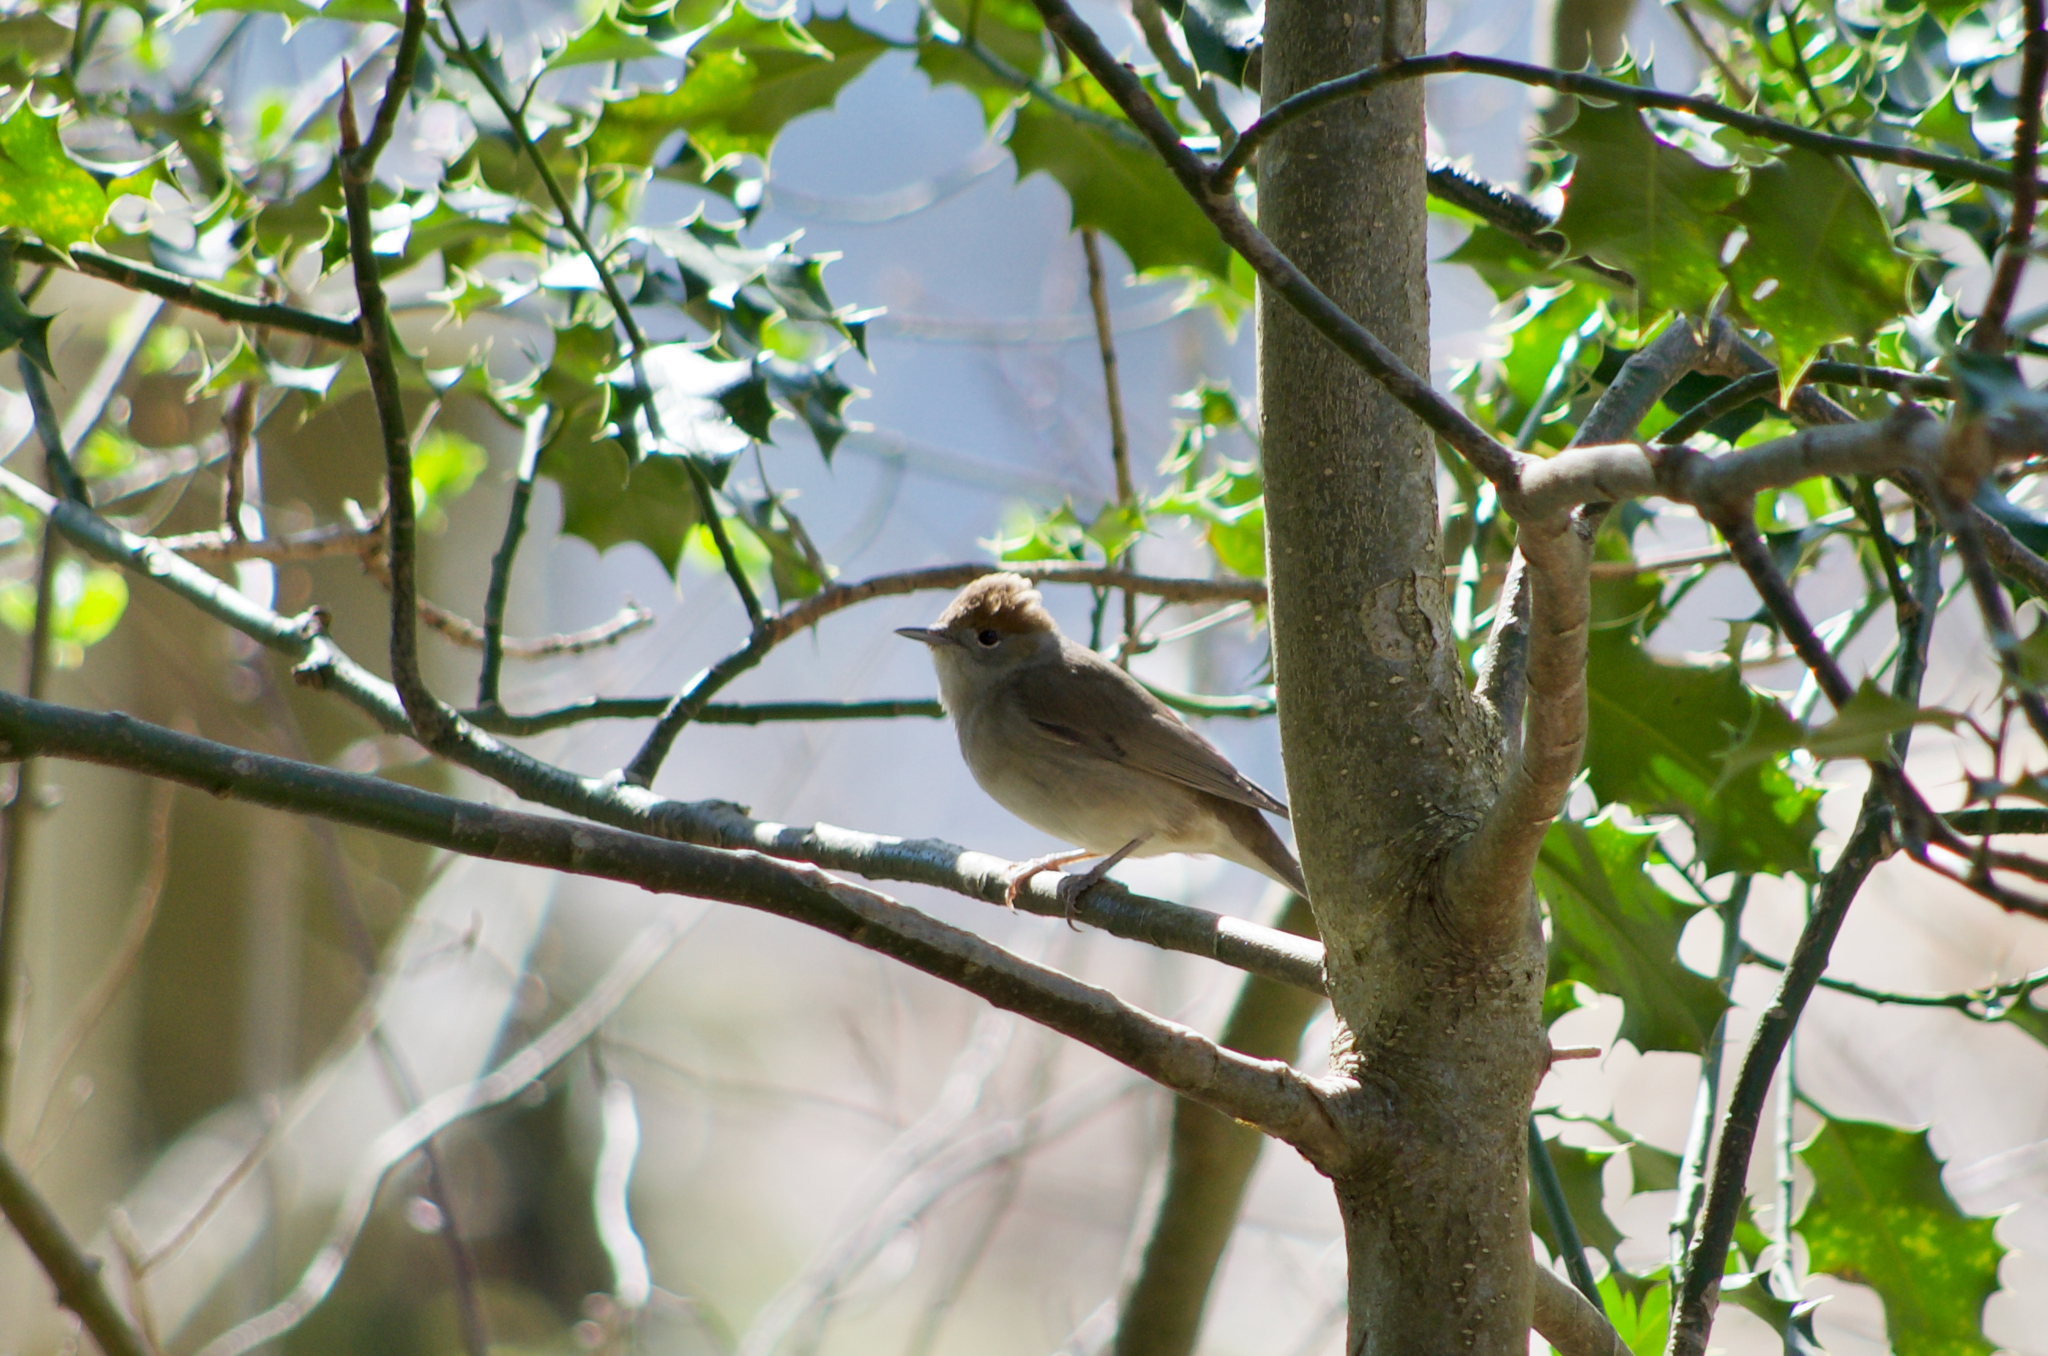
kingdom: Animalia
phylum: Chordata
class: Aves
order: Passeriformes
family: Sylviidae
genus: Sylvia
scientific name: Sylvia atricapilla
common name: Eurasian blackcap
